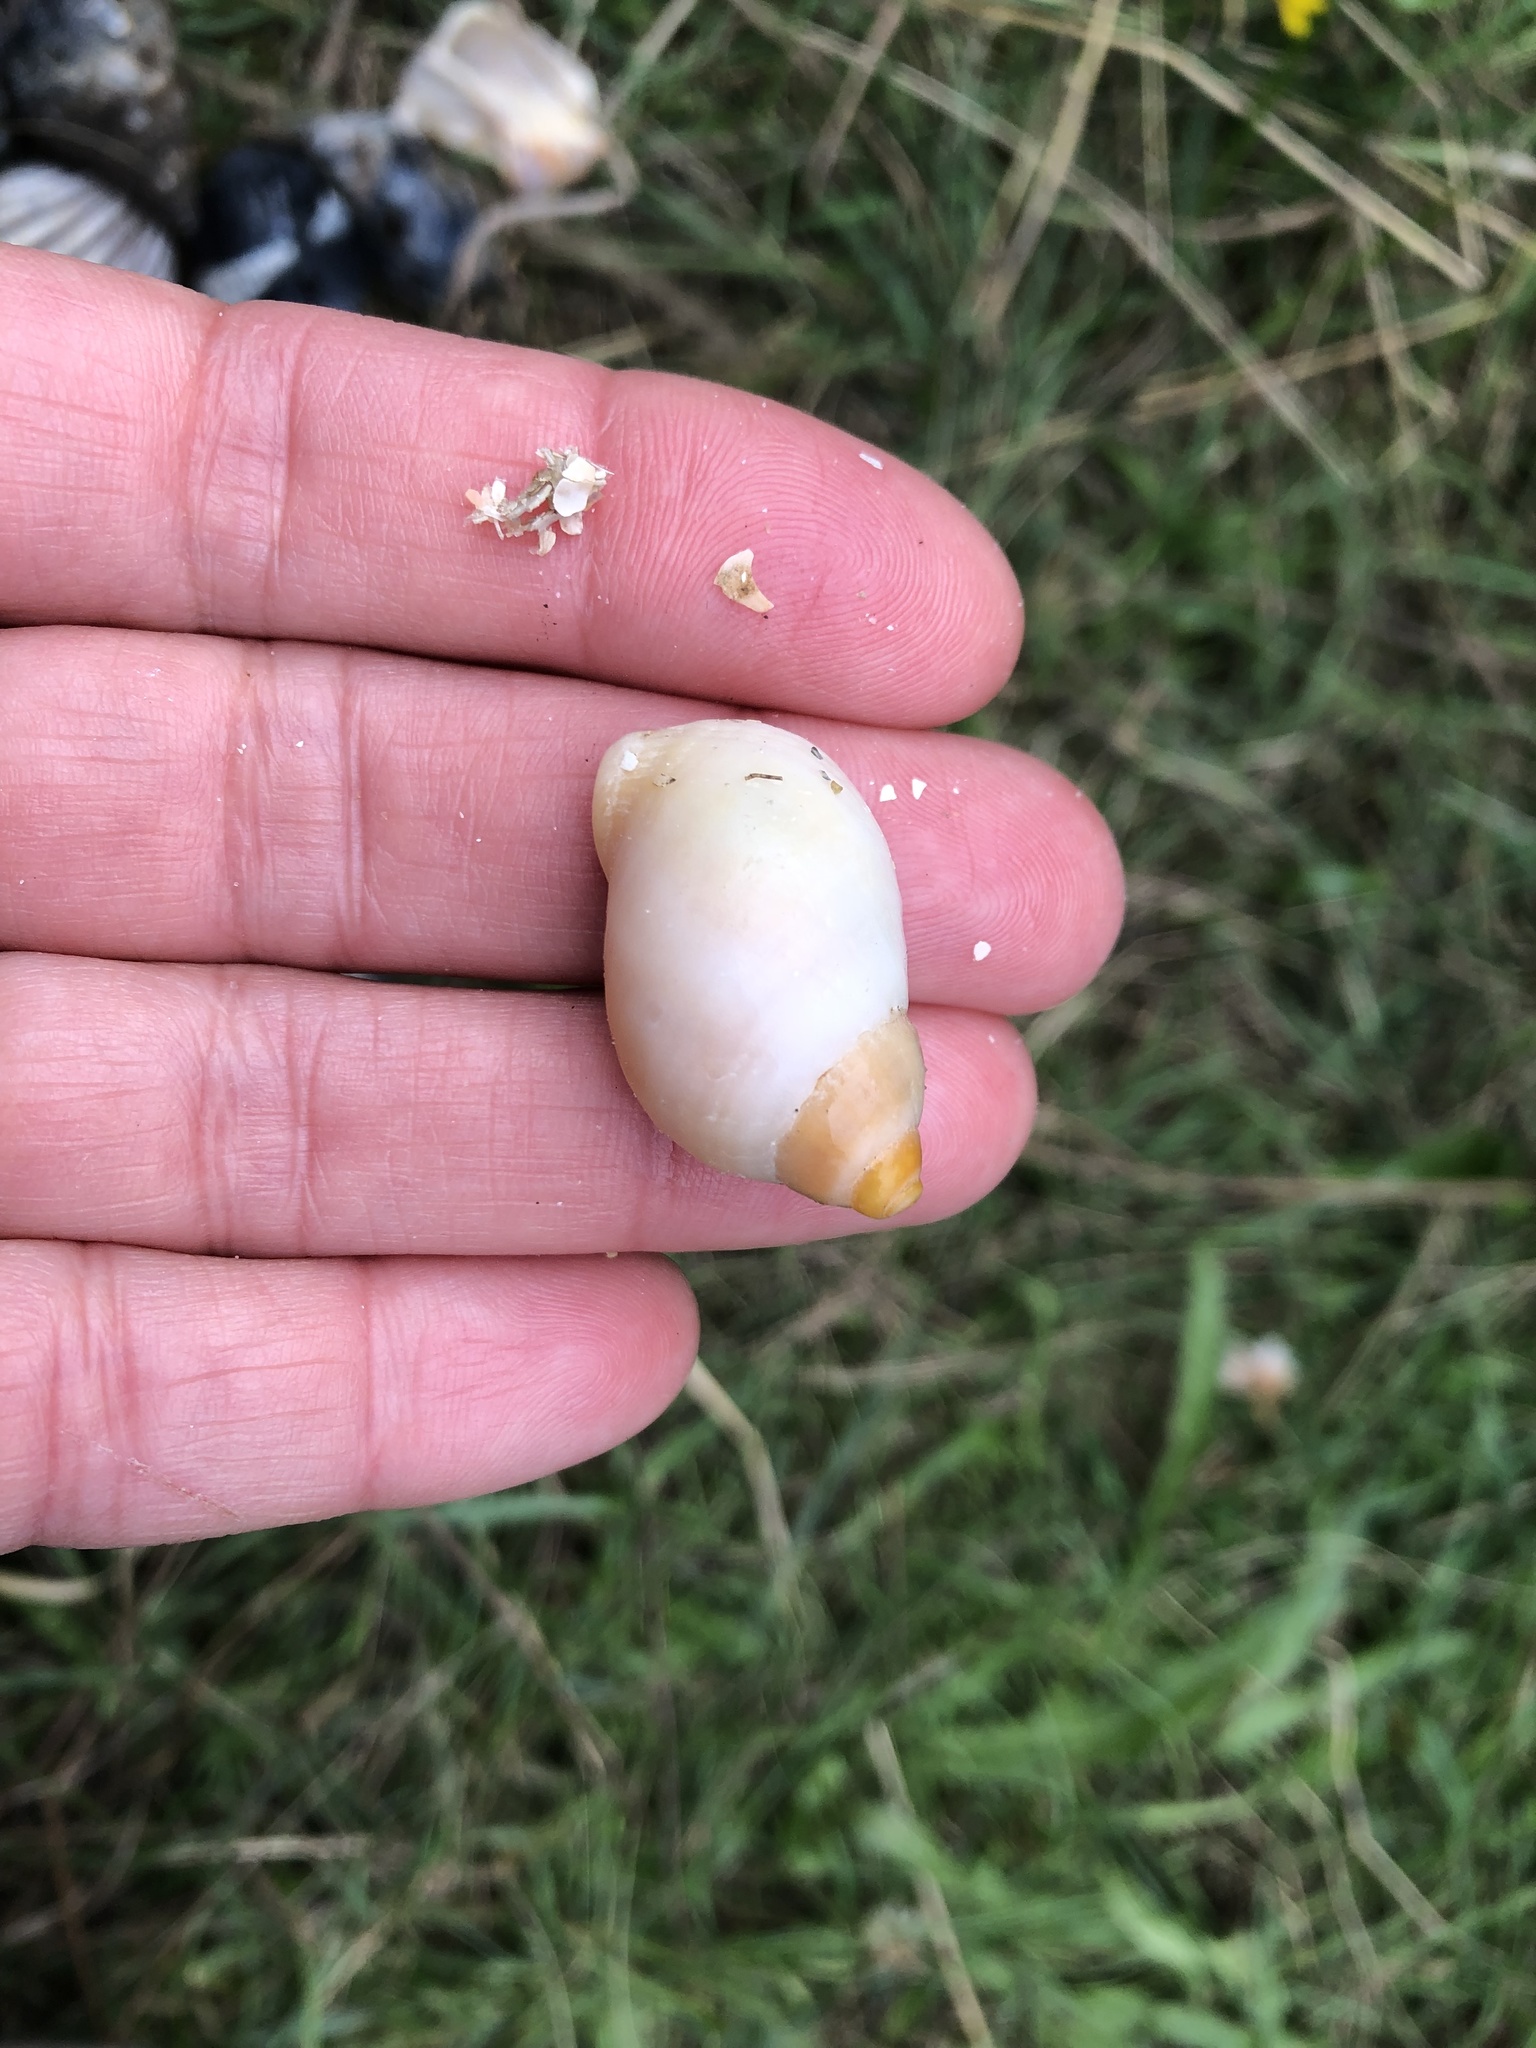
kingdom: Animalia
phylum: Mollusca
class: Gastropoda
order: Neogastropoda
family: Muricidae
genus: Nucella
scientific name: Nucella lapillus
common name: Dog whelk
